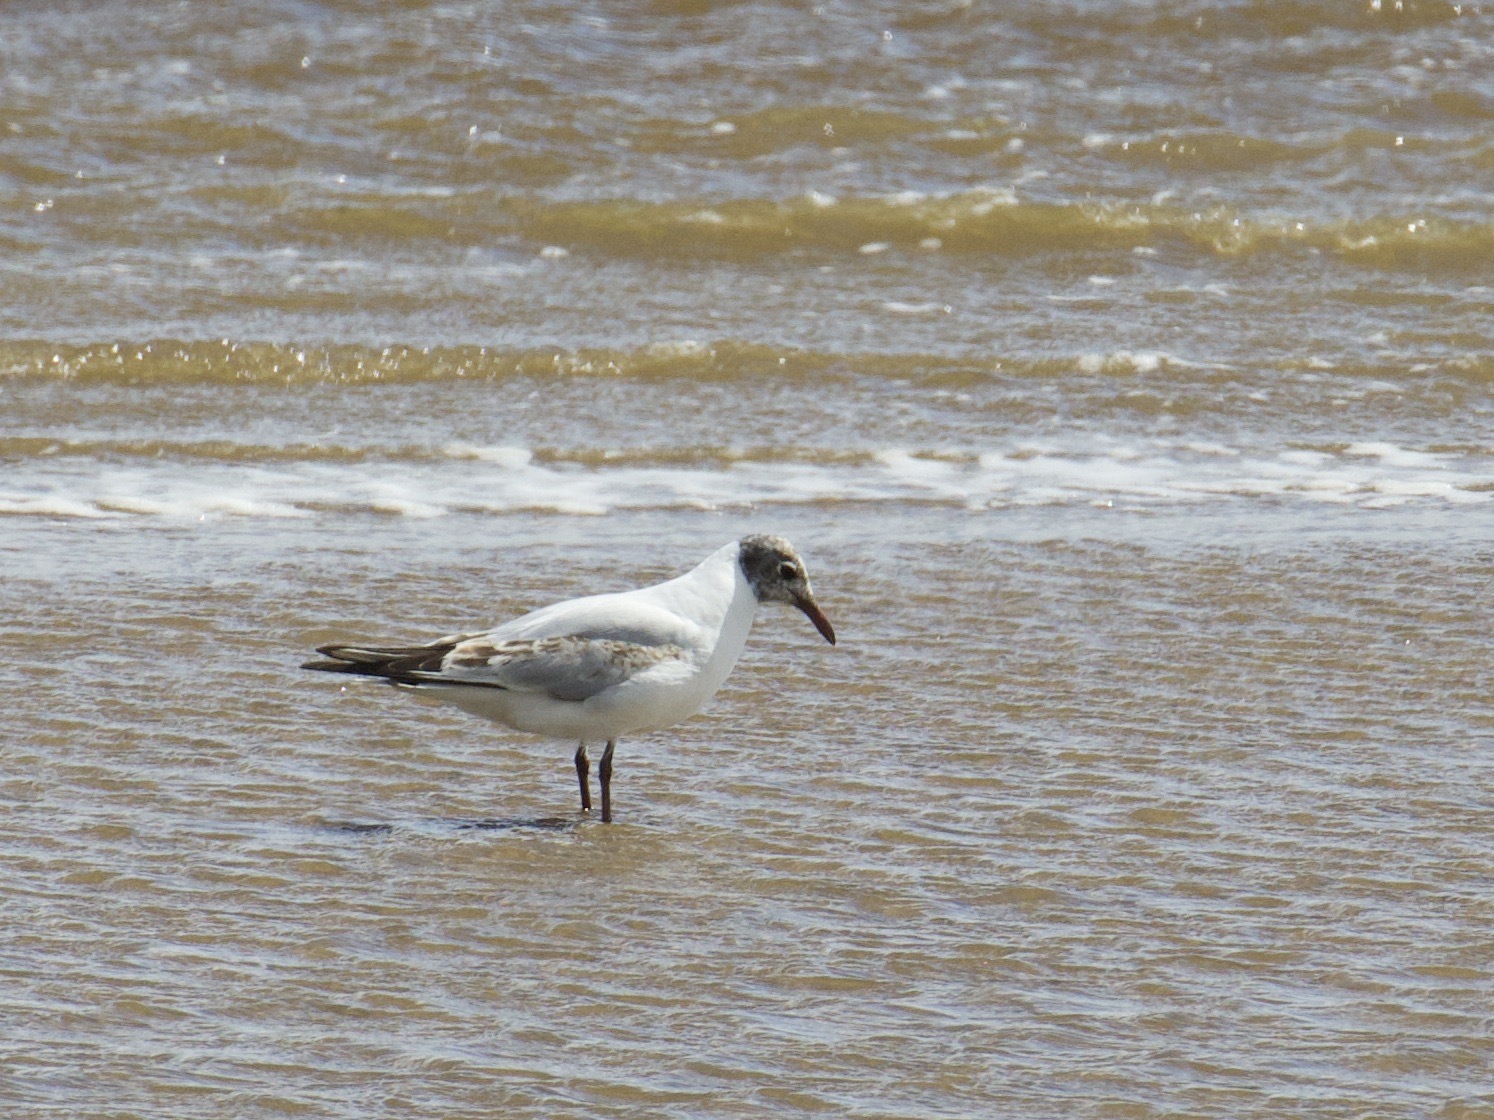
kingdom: Animalia
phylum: Chordata
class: Aves
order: Charadriiformes
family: Laridae
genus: Chroicocephalus
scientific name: Chroicocephalus ridibundus
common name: Black-headed gull
